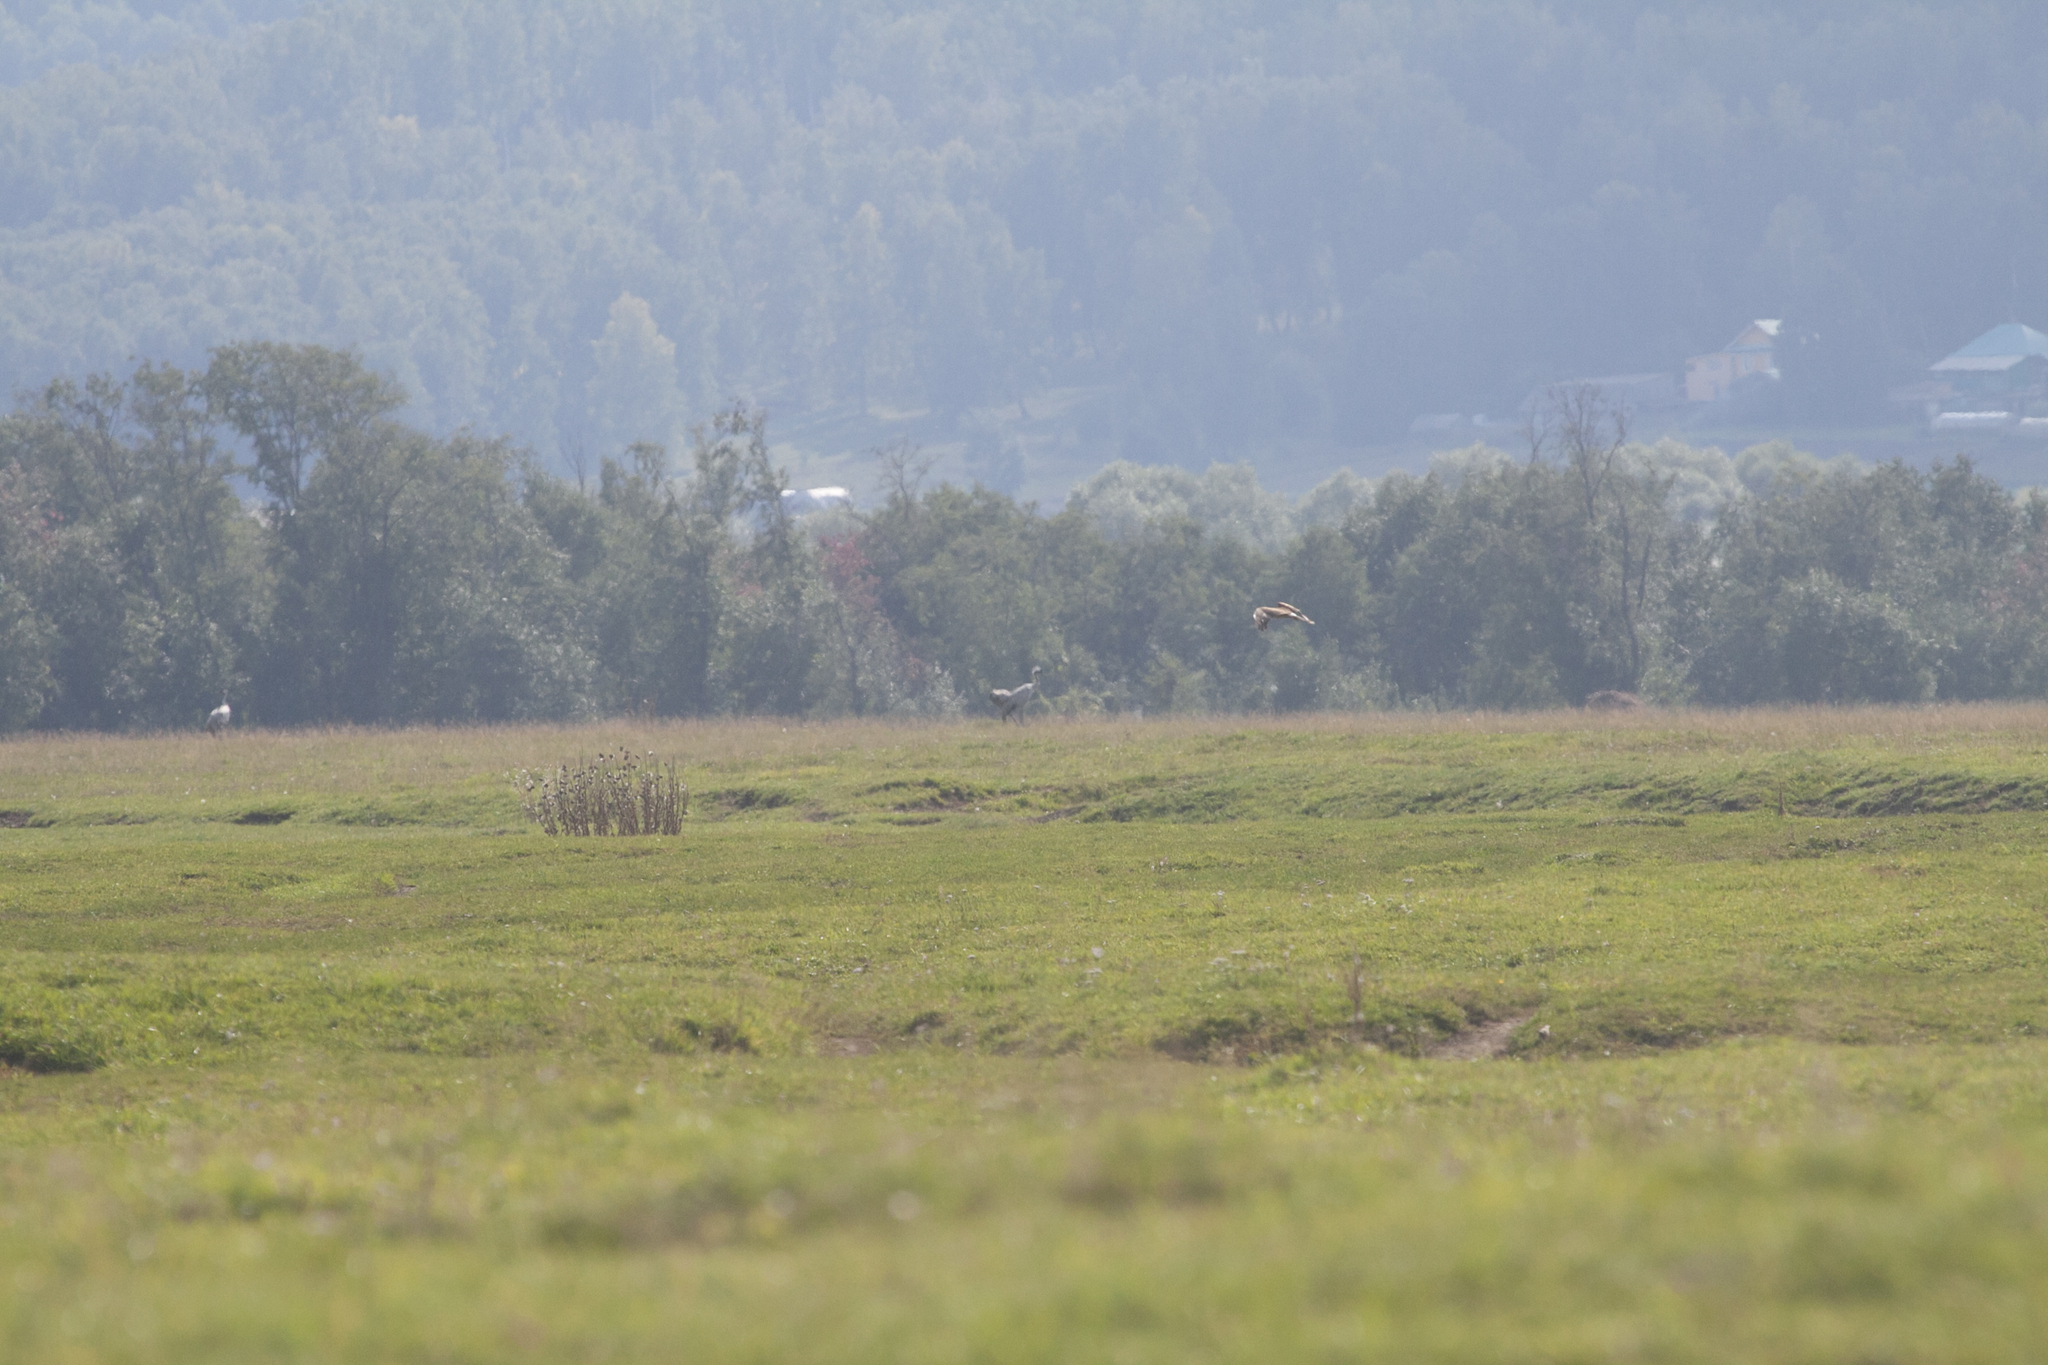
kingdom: Animalia
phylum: Chordata
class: Aves
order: Gruiformes
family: Gruidae
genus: Grus
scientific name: Grus grus
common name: Common crane
